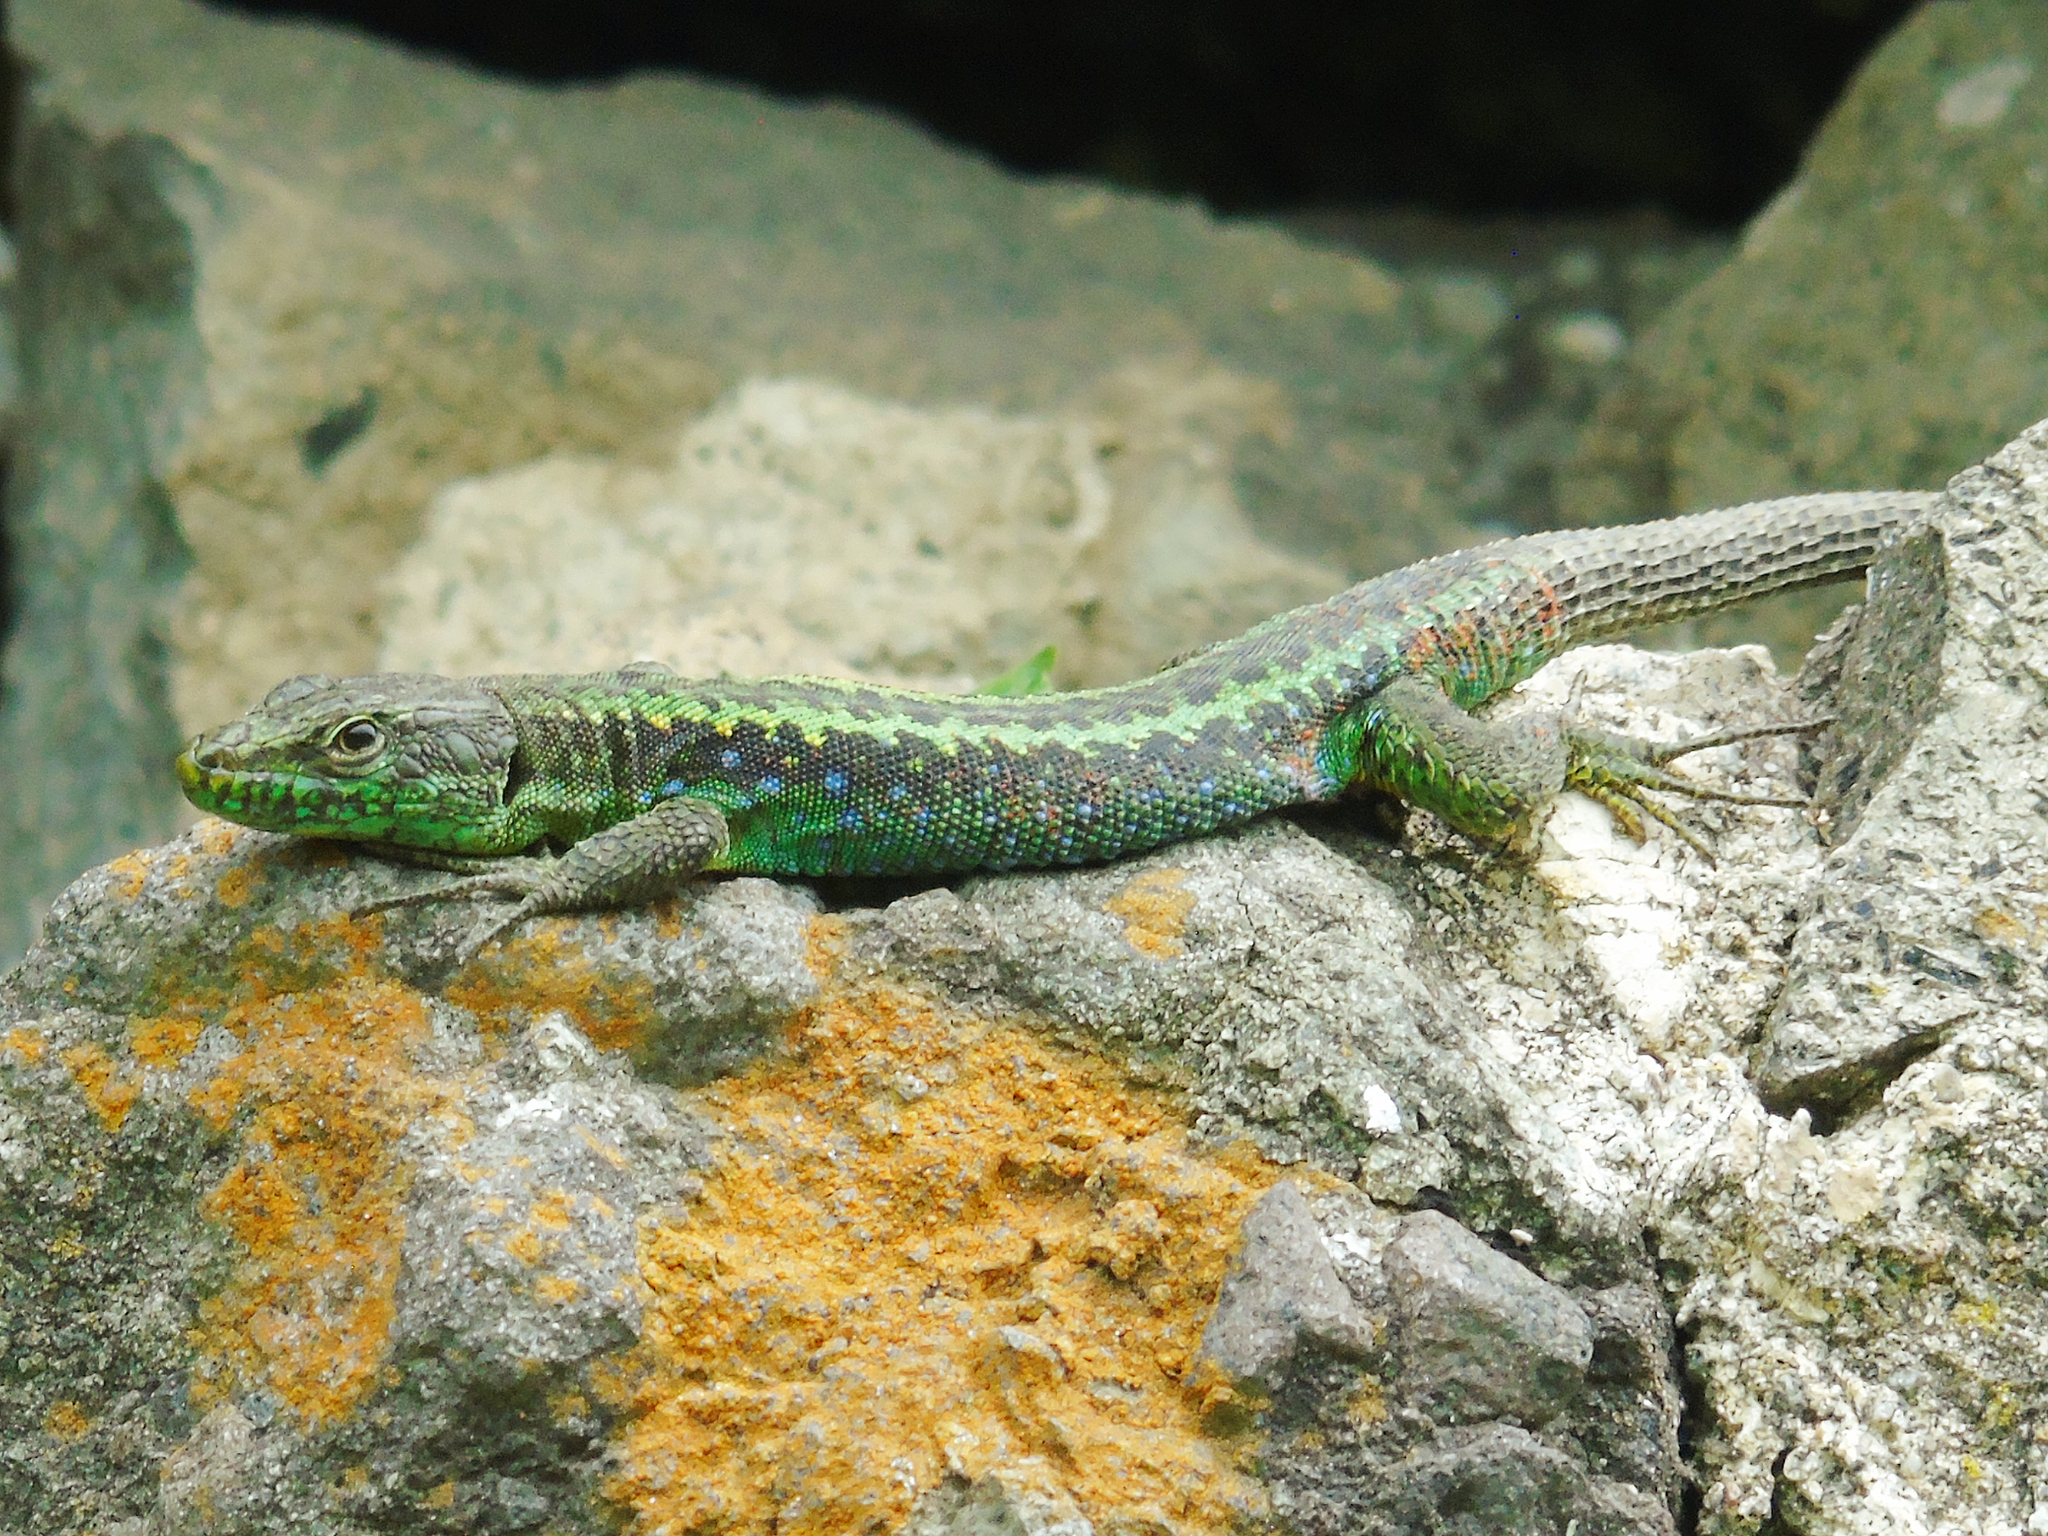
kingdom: Animalia
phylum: Chordata
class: Squamata
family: Lacertidae
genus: Darevskia
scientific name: Darevskia rudis
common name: Spiny-tailed lizard
